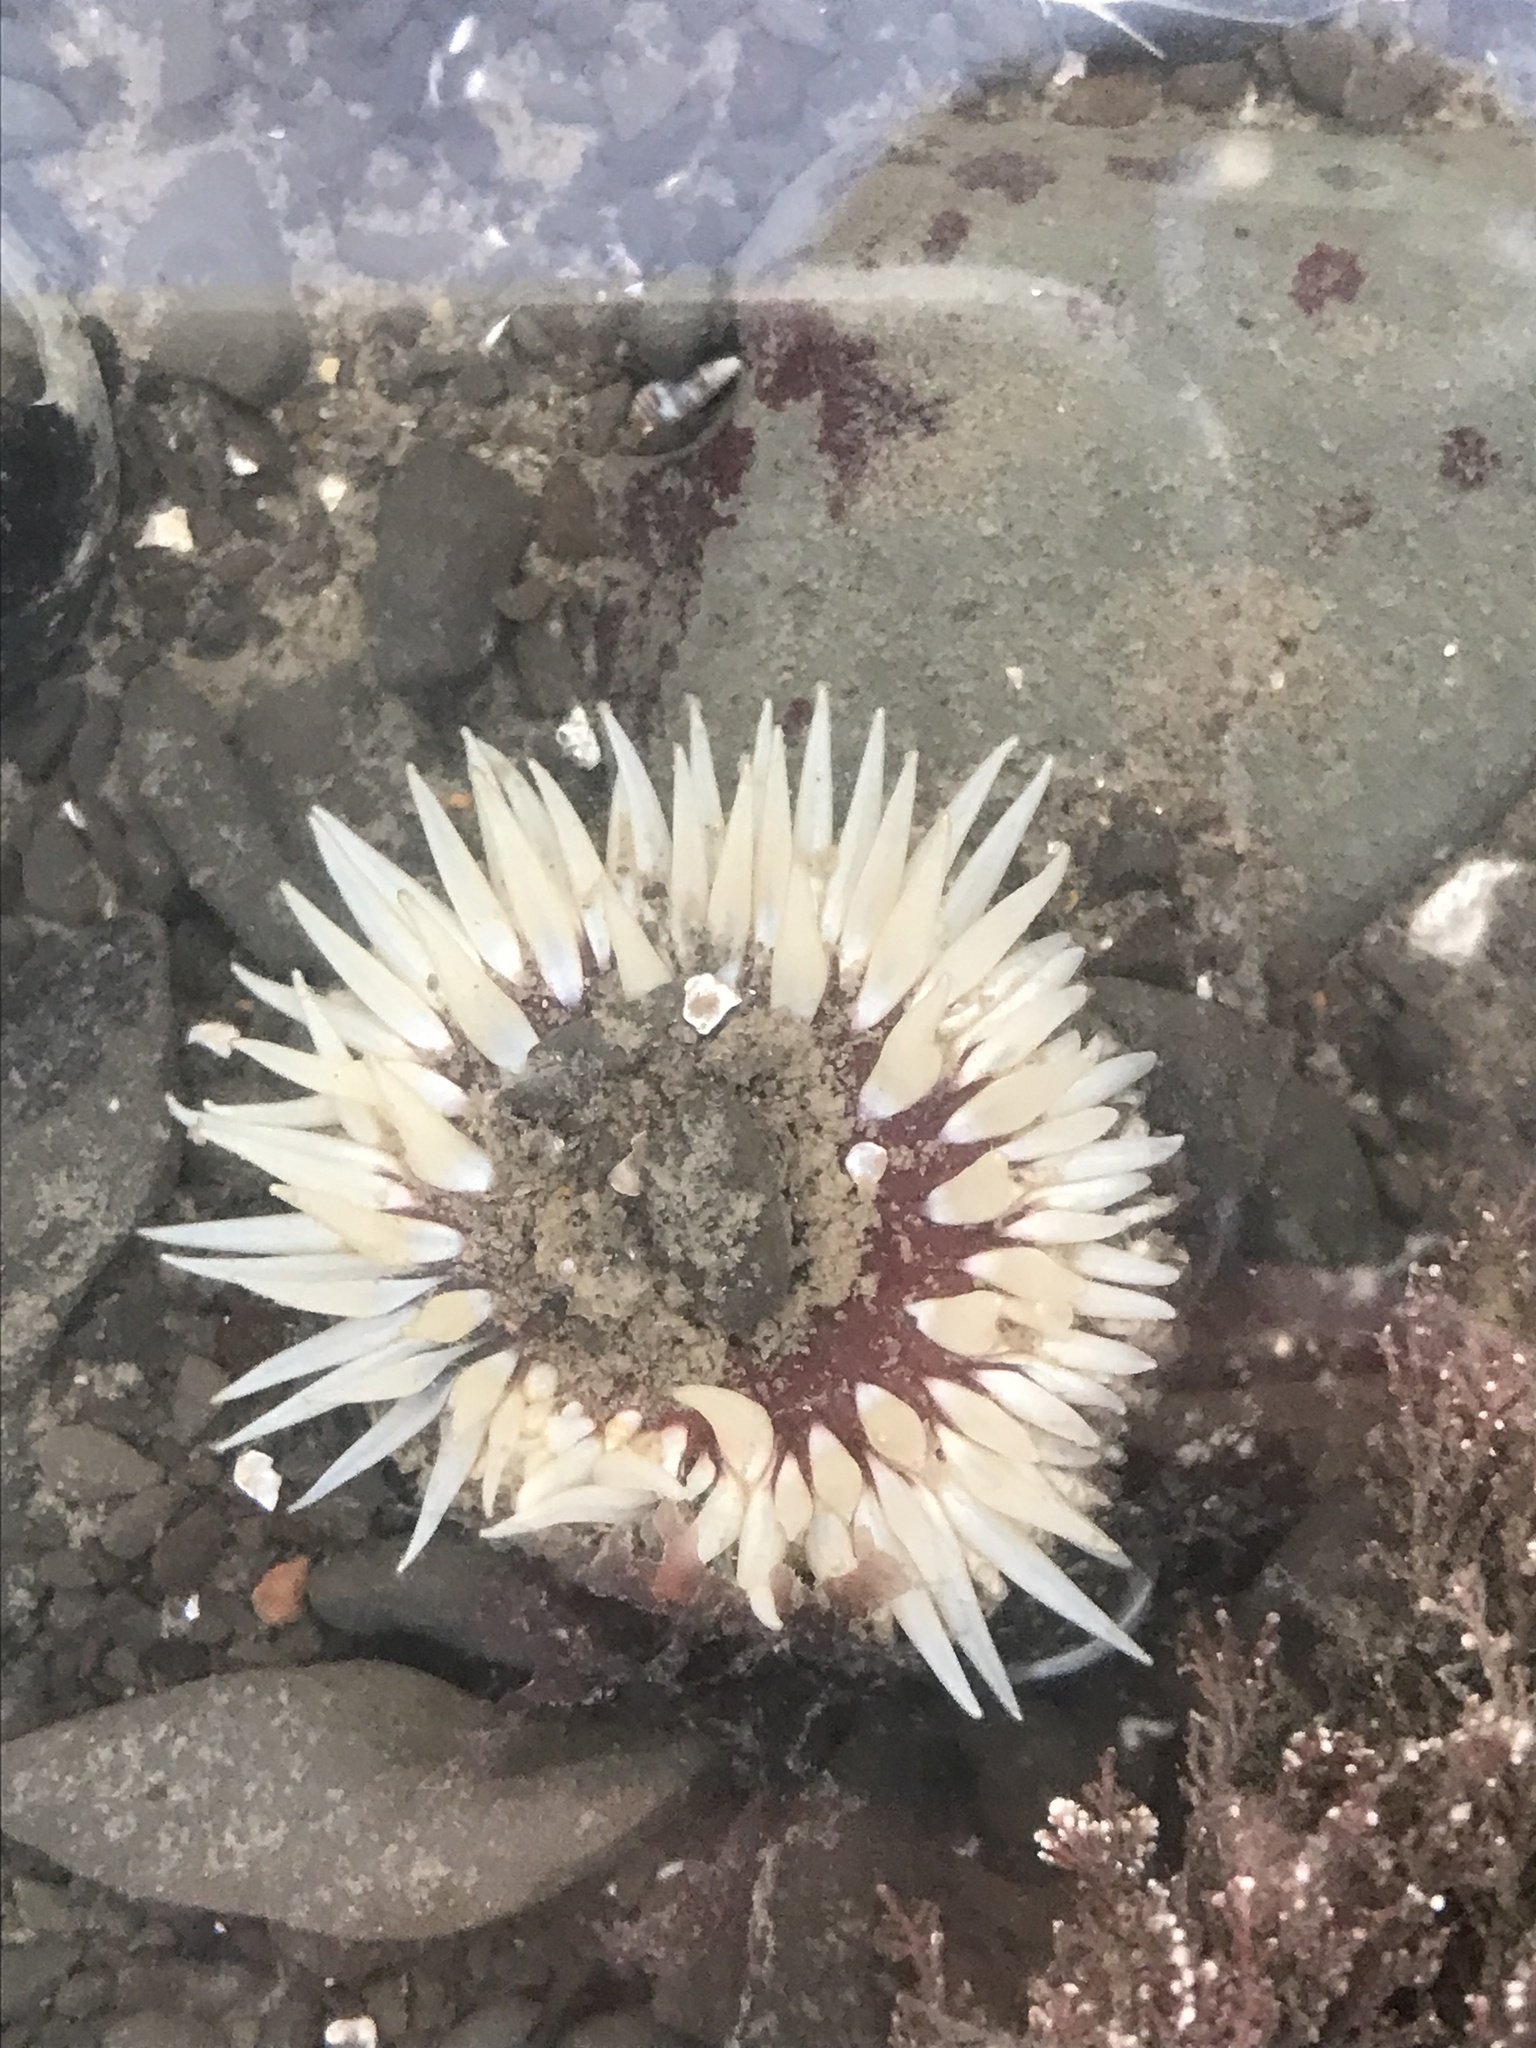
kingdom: Animalia
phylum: Cnidaria
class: Anthozoa
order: Actiniaria
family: Actiniidae
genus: Anthopleura
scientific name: Anthopleura artemisia
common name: Buried sea anemone
